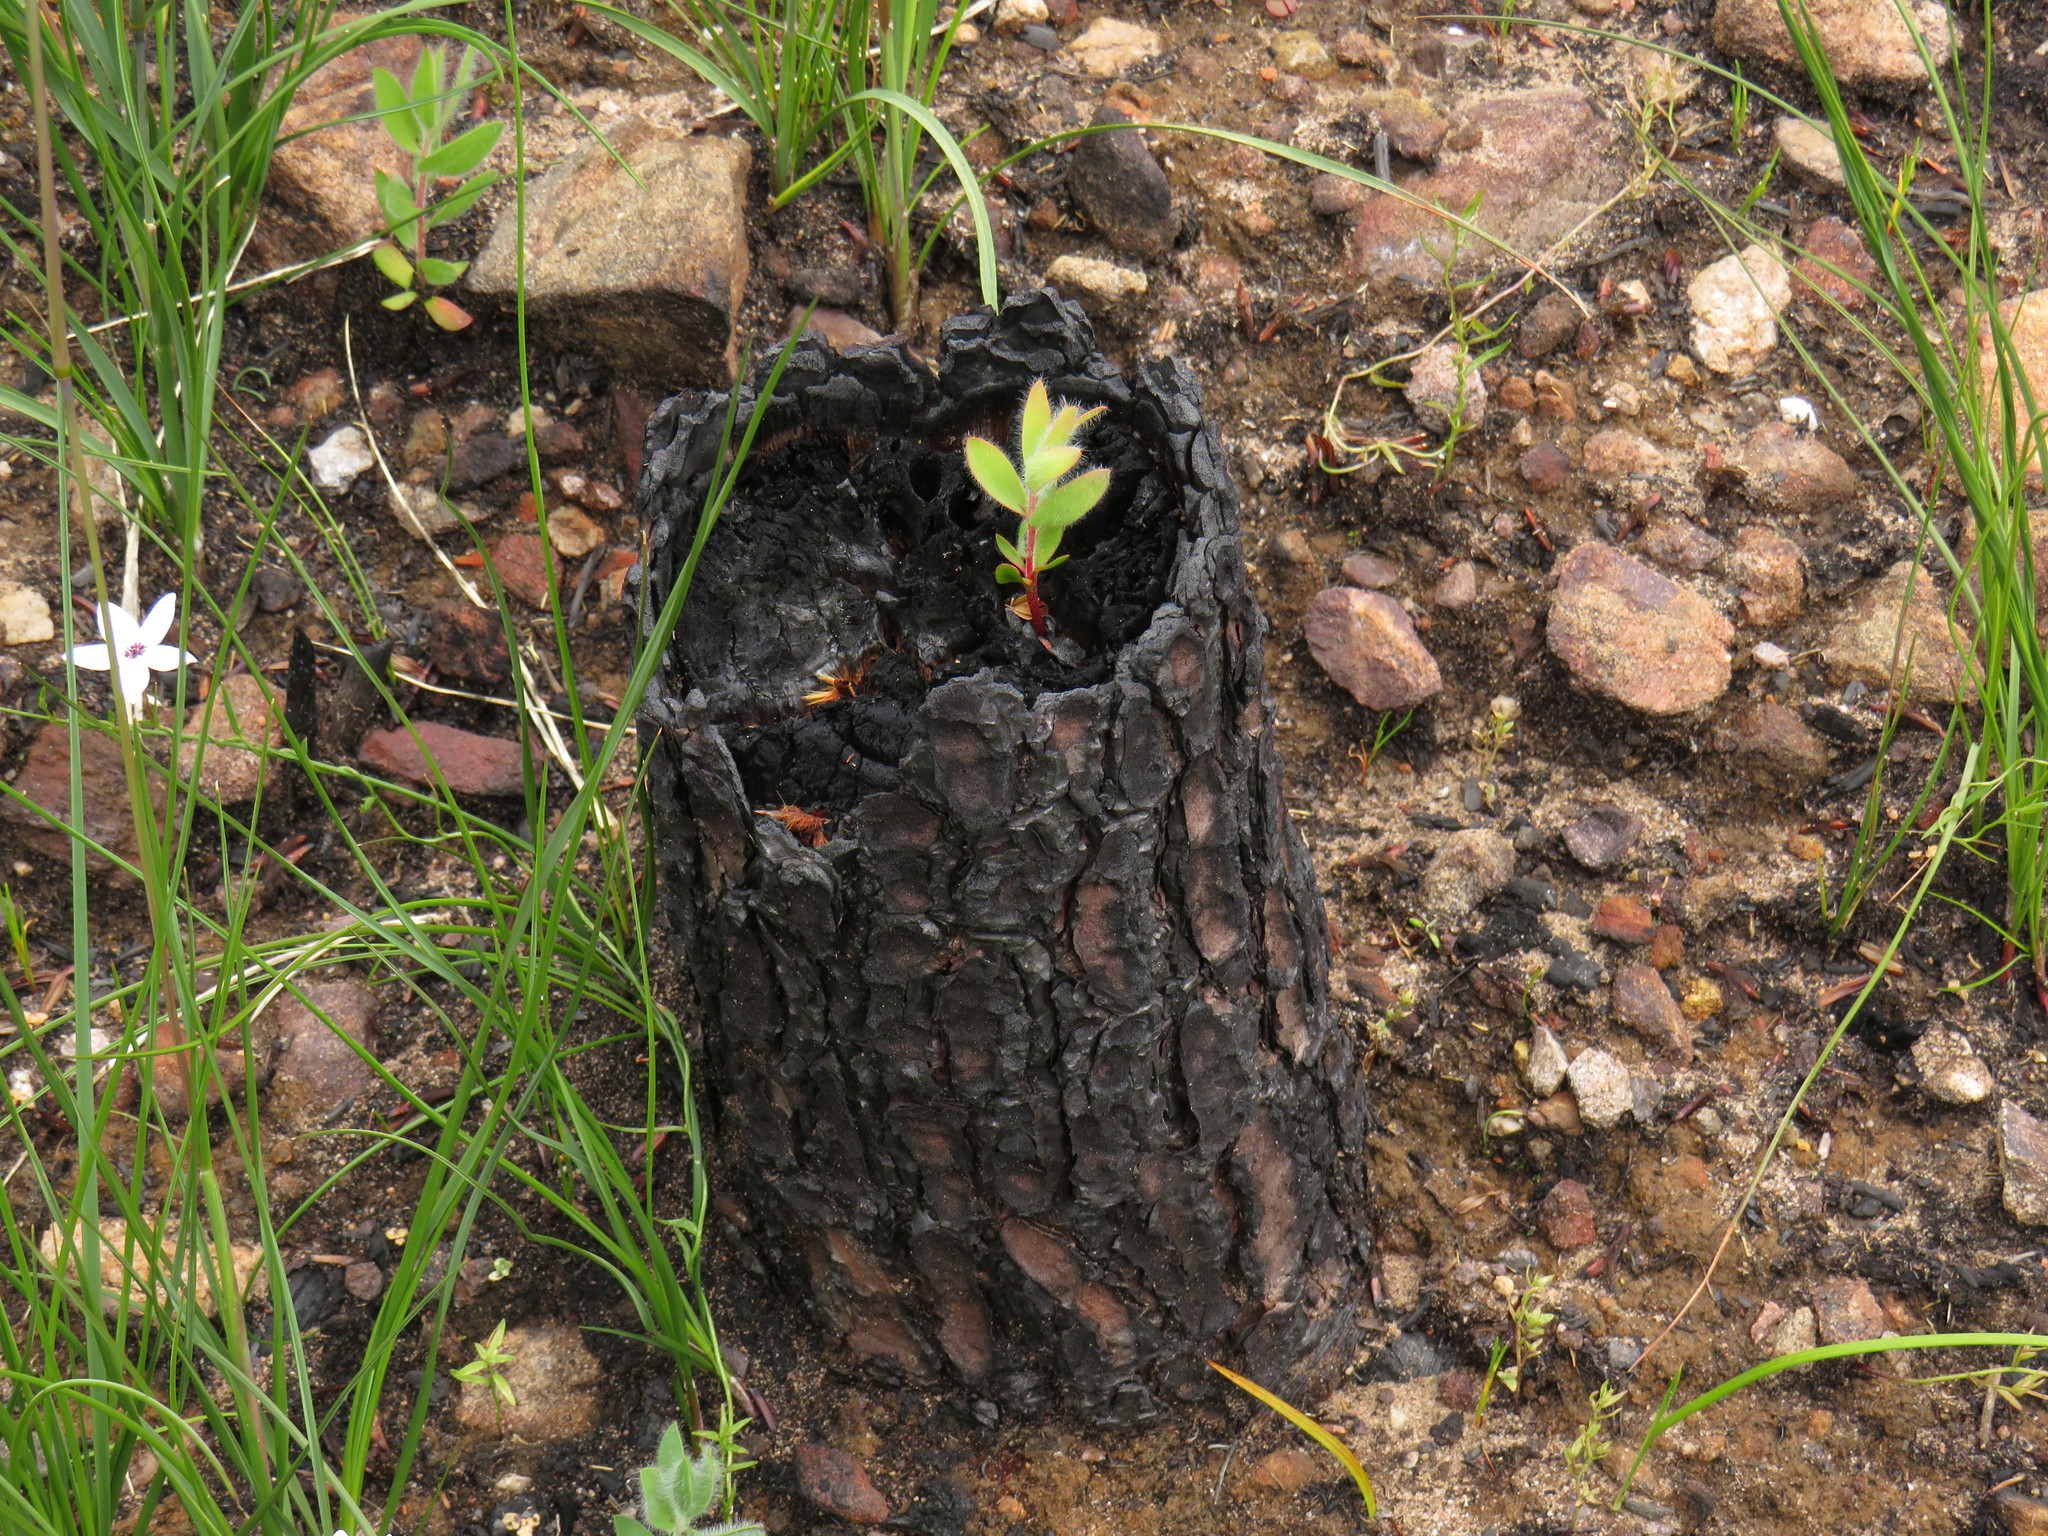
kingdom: Plantae
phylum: Tracheophyta
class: Magnoliopsida
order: Proteales
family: Proteaceae
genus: Protea
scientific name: Protea laurifolia
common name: Grey-leaf sugarbsh
